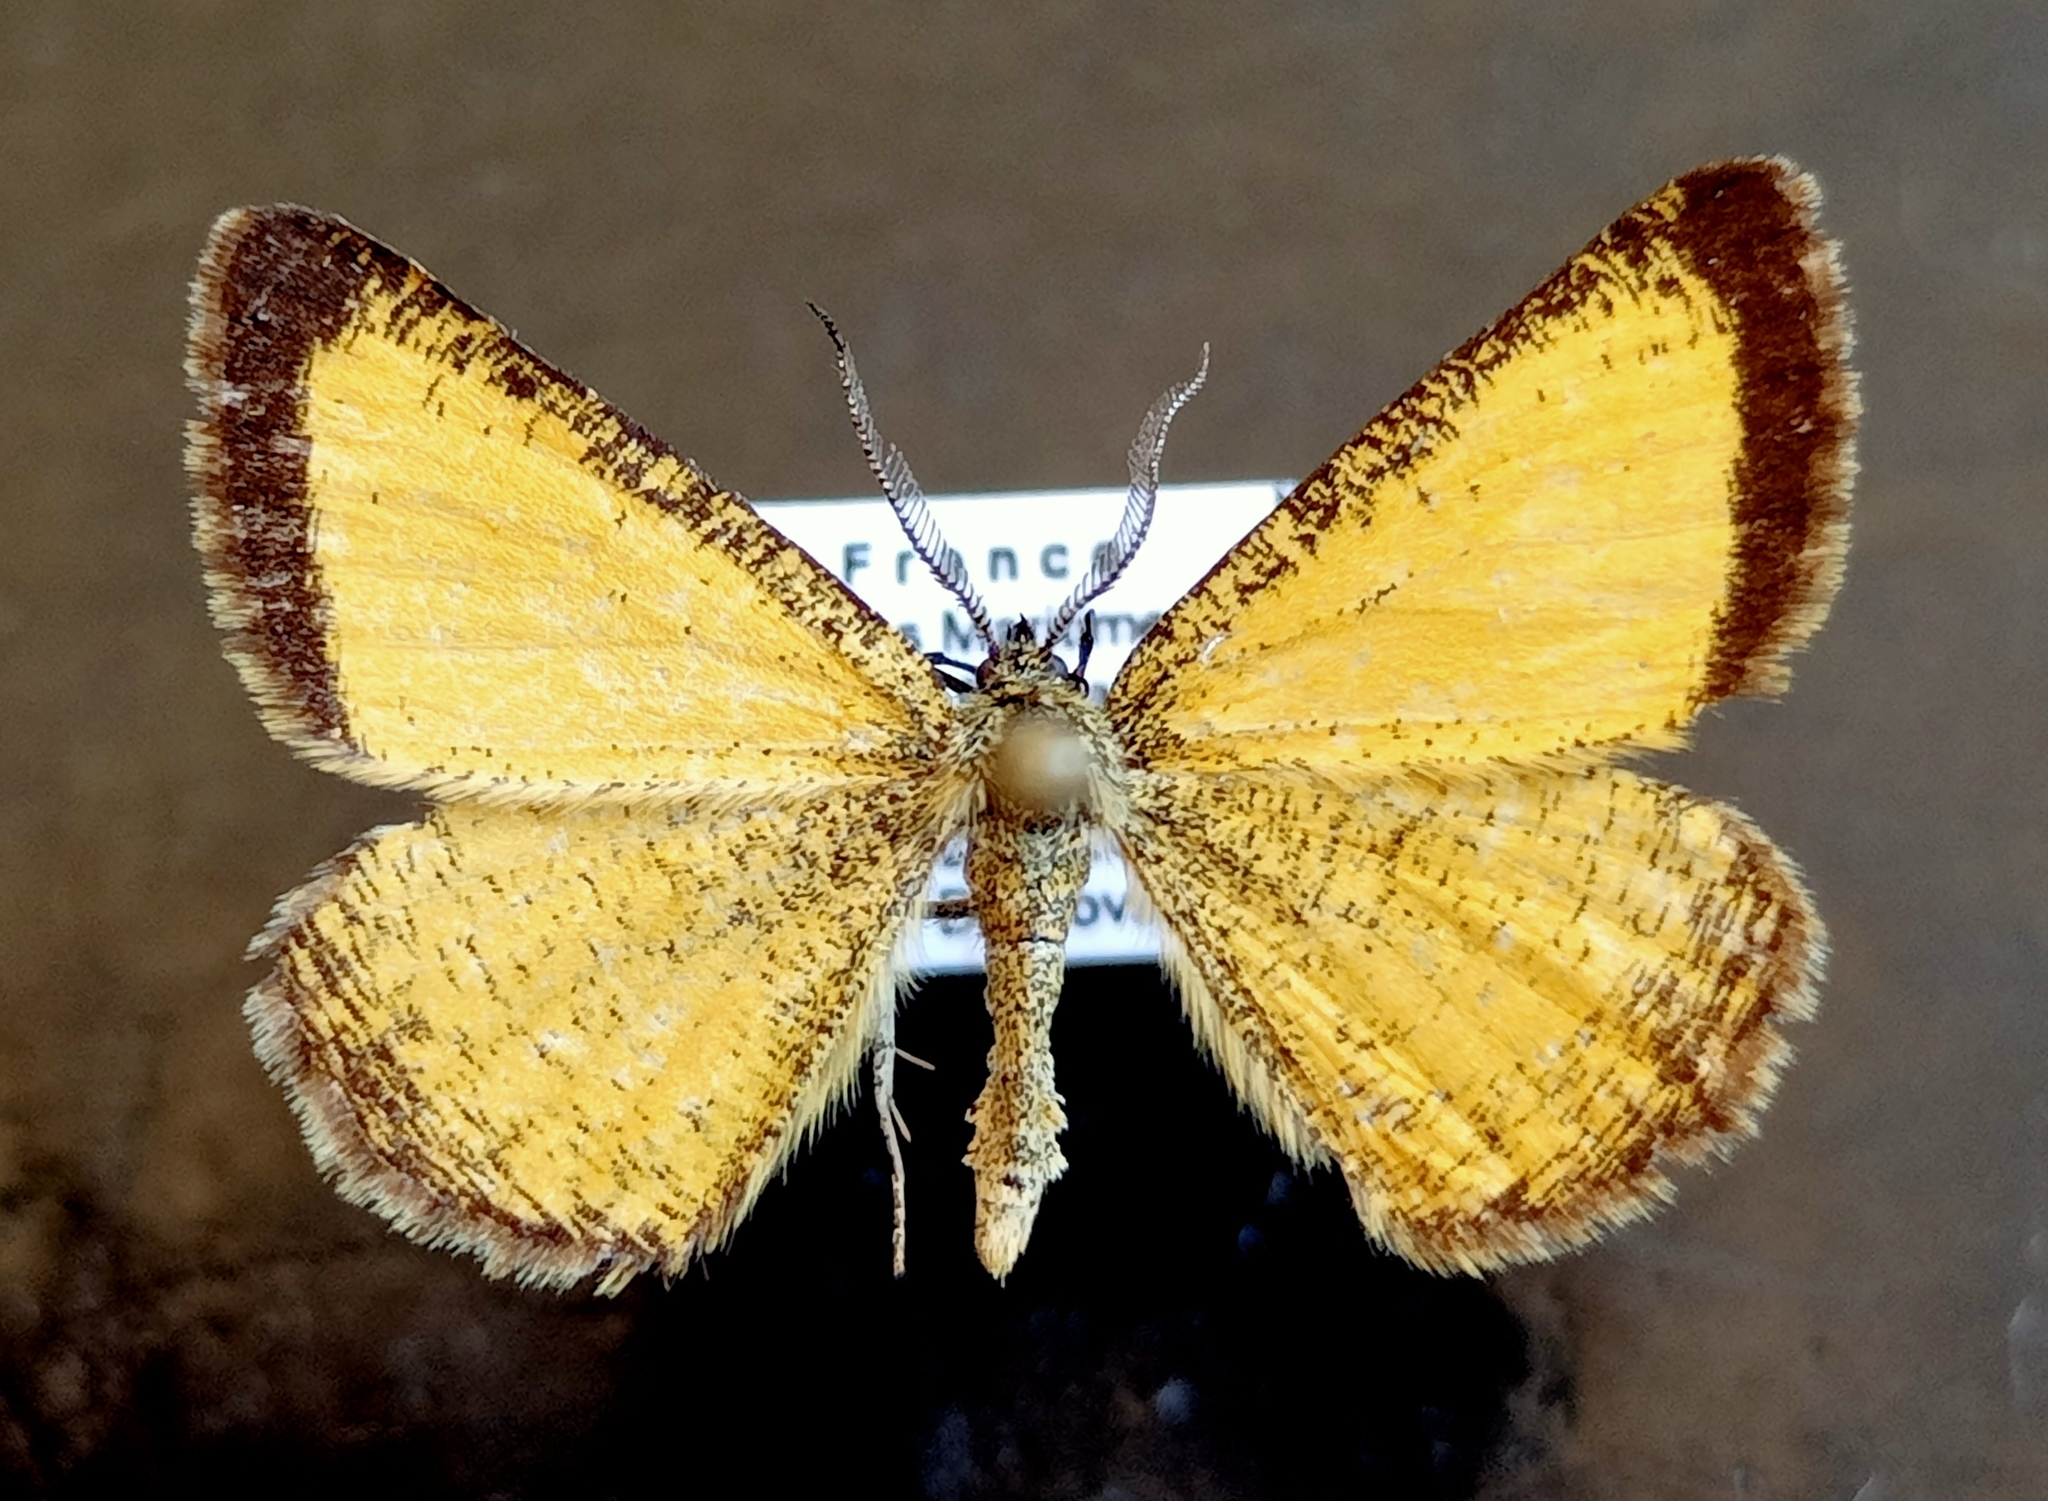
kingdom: Animalia
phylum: Arthropoda
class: Insecta
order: Lepidoptera
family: Geometridae
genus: Isturgia
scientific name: Isturgia limbaria
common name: Frosted yellow
